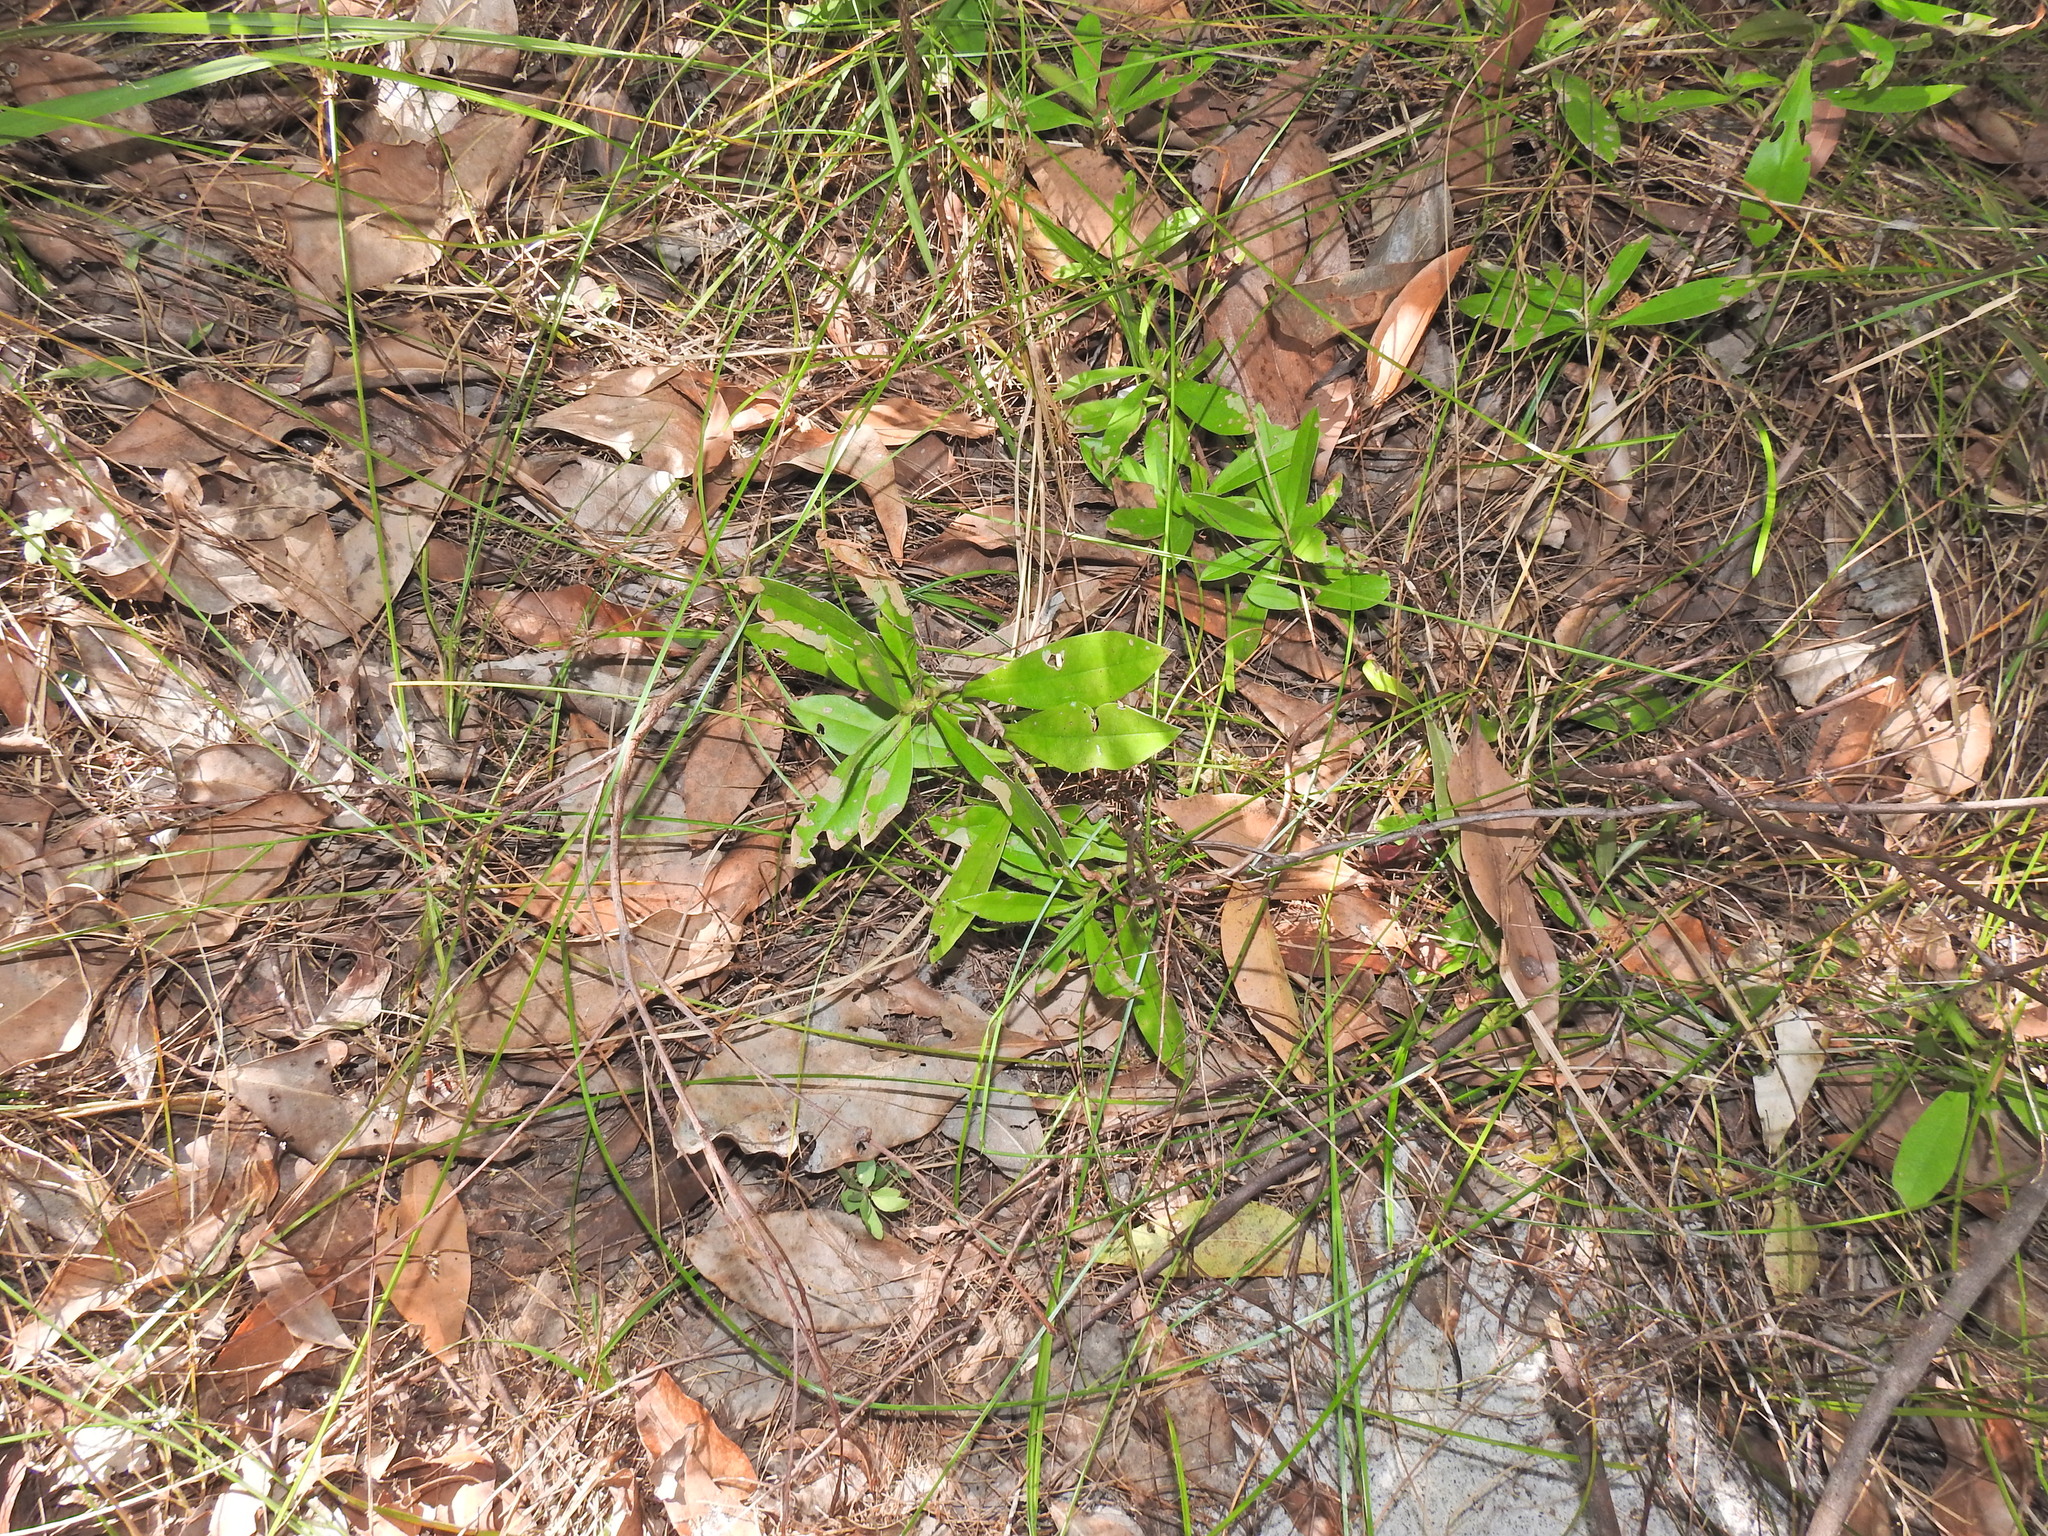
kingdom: Plantae
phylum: Tracheophyta
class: Magnoliopsida
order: Dilleniales
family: Dilleniaceae
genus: Hibbertia
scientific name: Hibbertia scandens
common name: Climbing guinea-flower
